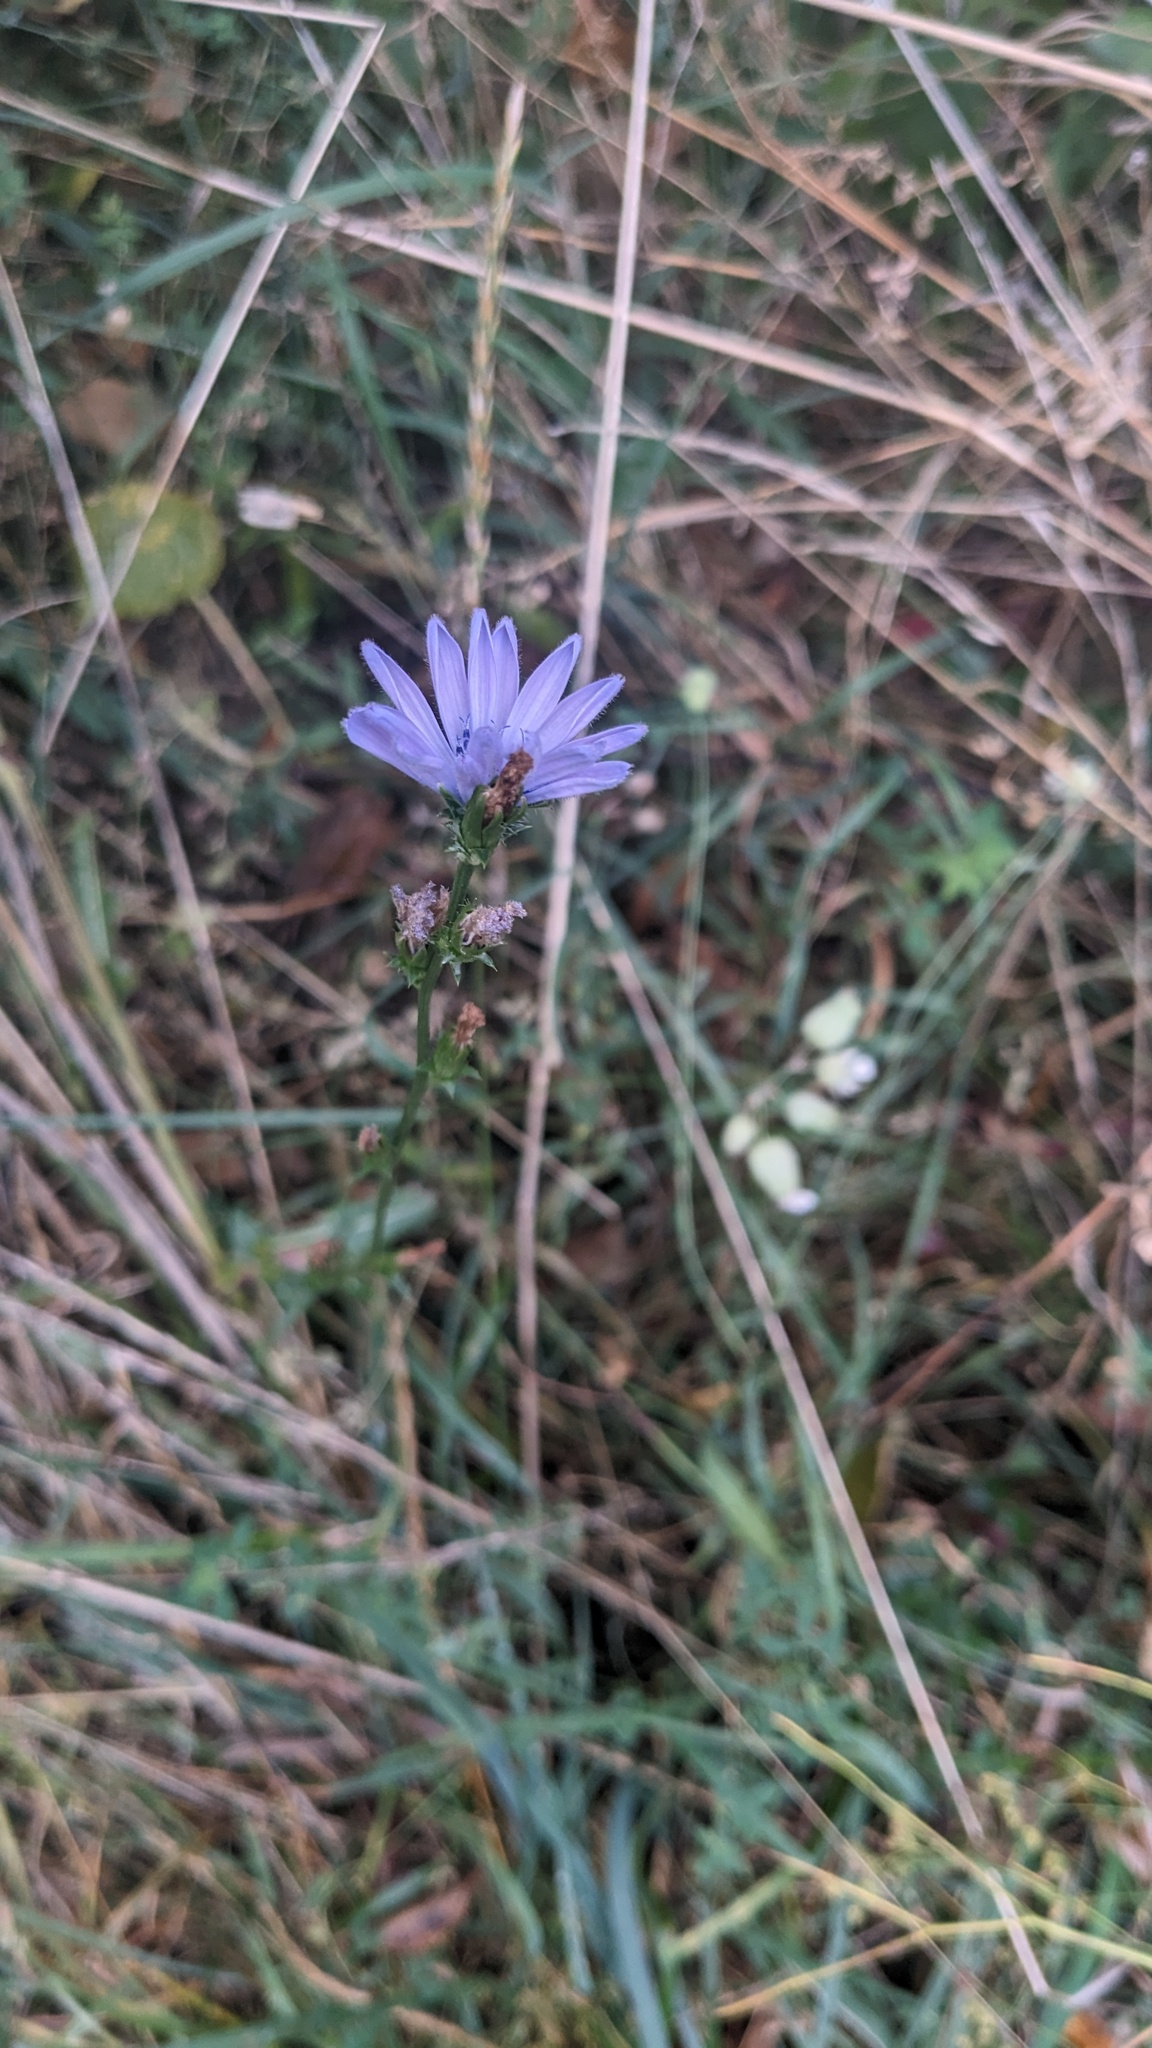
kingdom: Plantae
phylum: Tracheophyta
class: Magnoliopsida
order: Asterales
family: Asteraceae
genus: Cichorium
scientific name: Cichorium intybus
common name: Chicory
